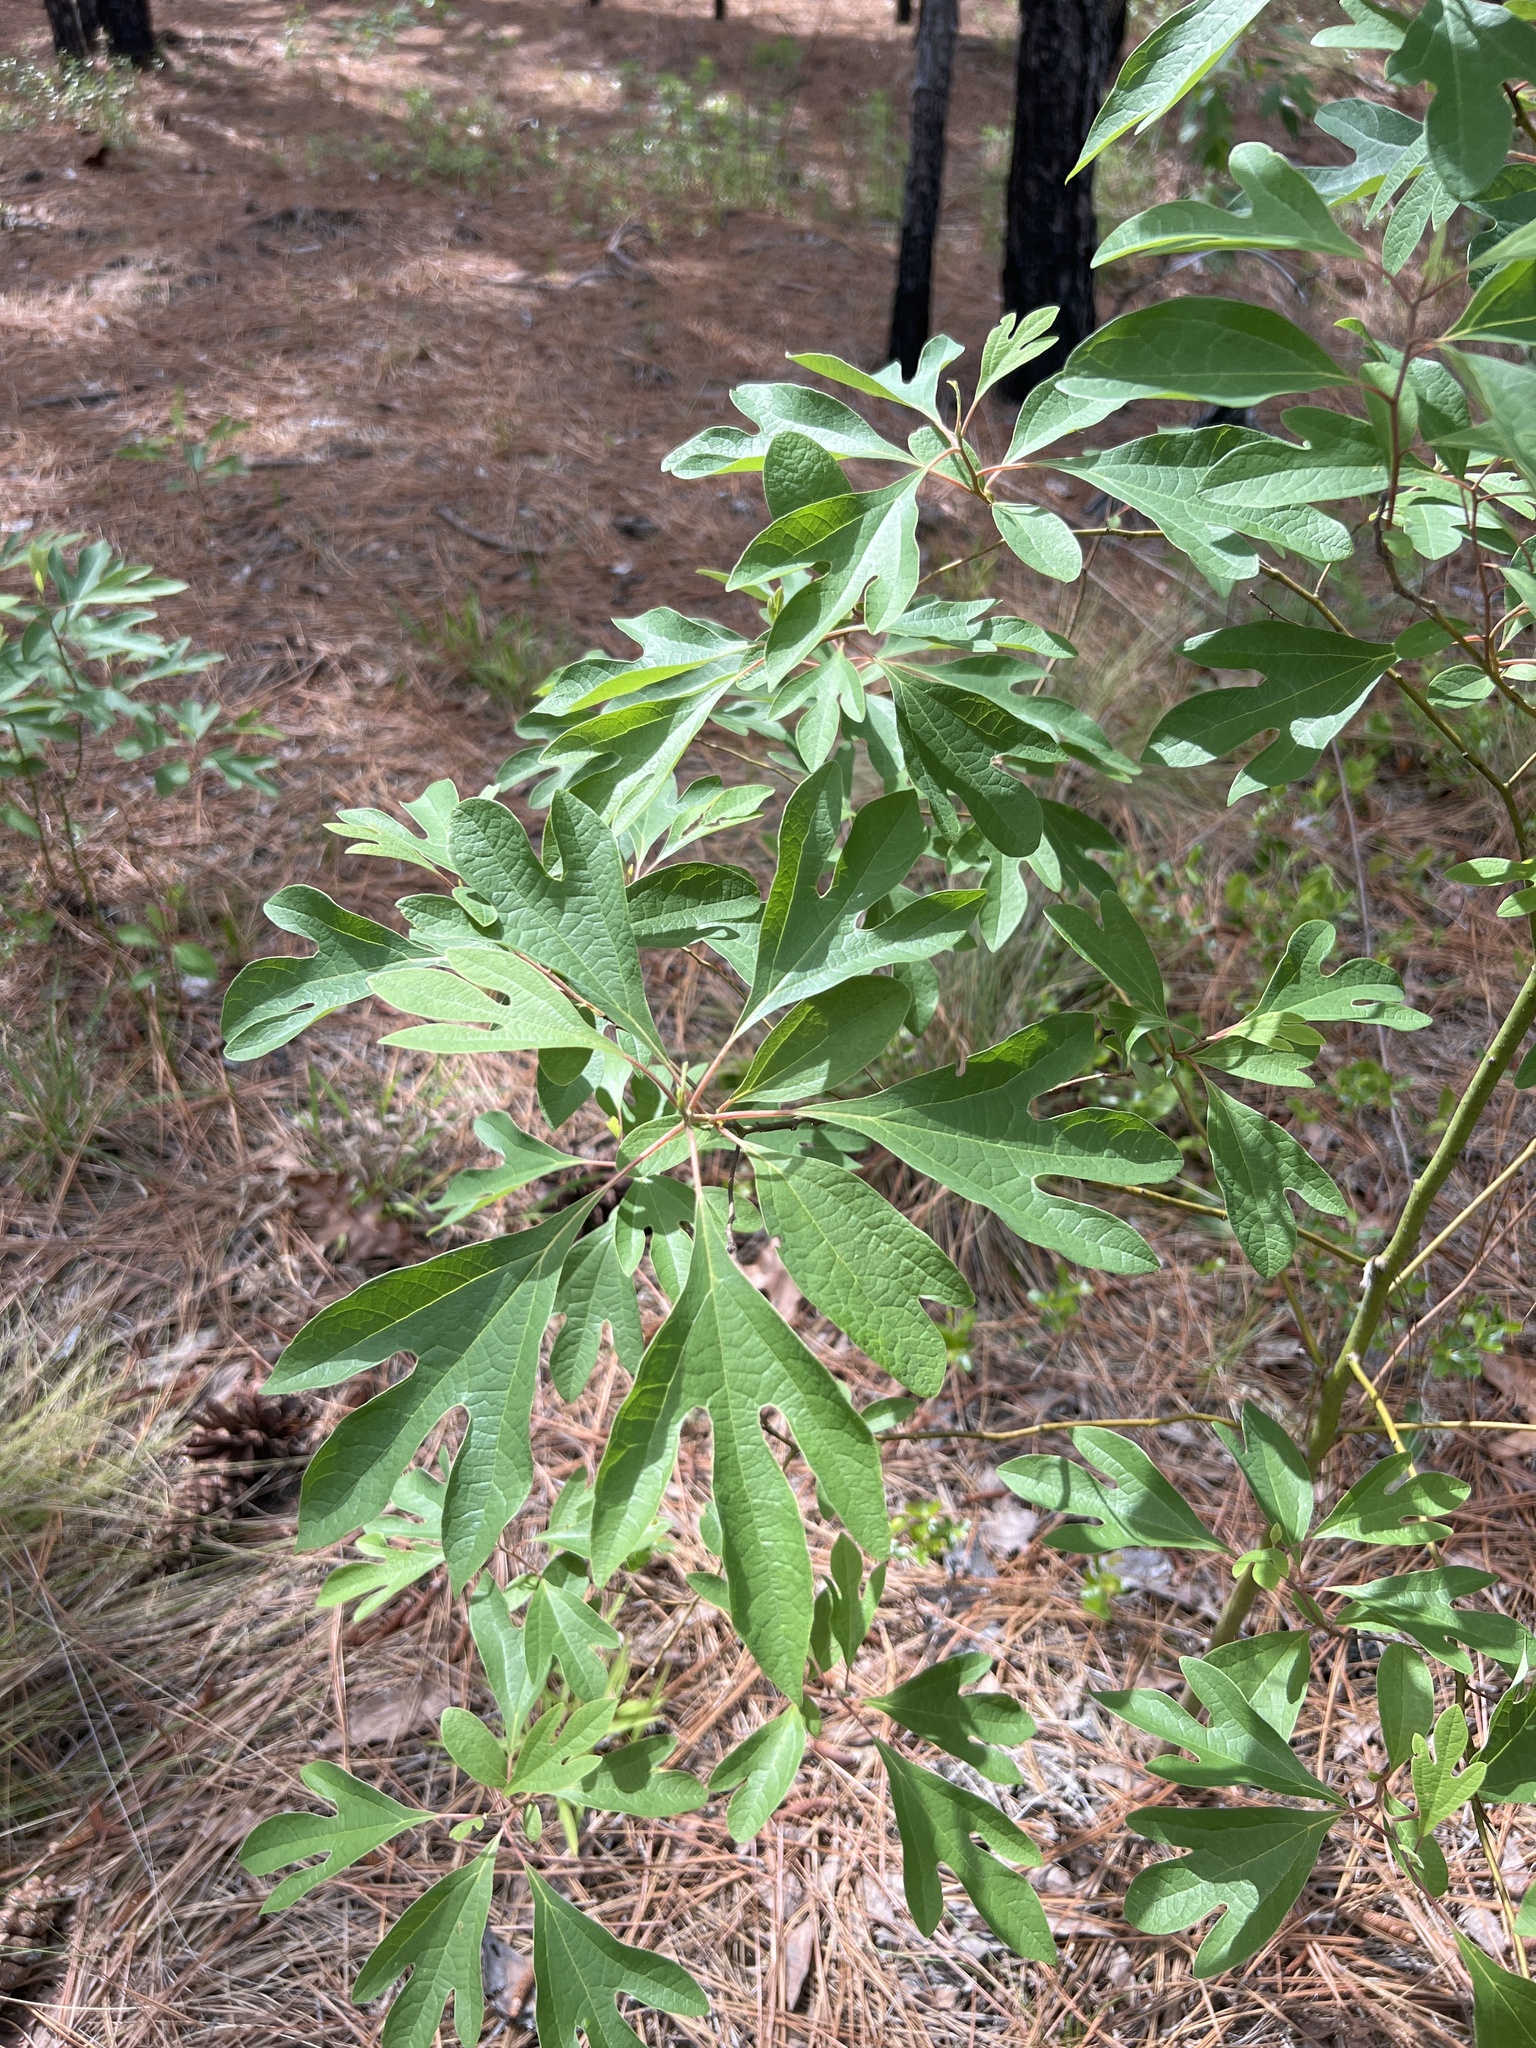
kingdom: Plantae
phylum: Tracheophyta
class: Magnoliopsida
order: Laurales
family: Lauraceae
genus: Sassafras
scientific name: Sassafras albidum
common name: Sassafras
